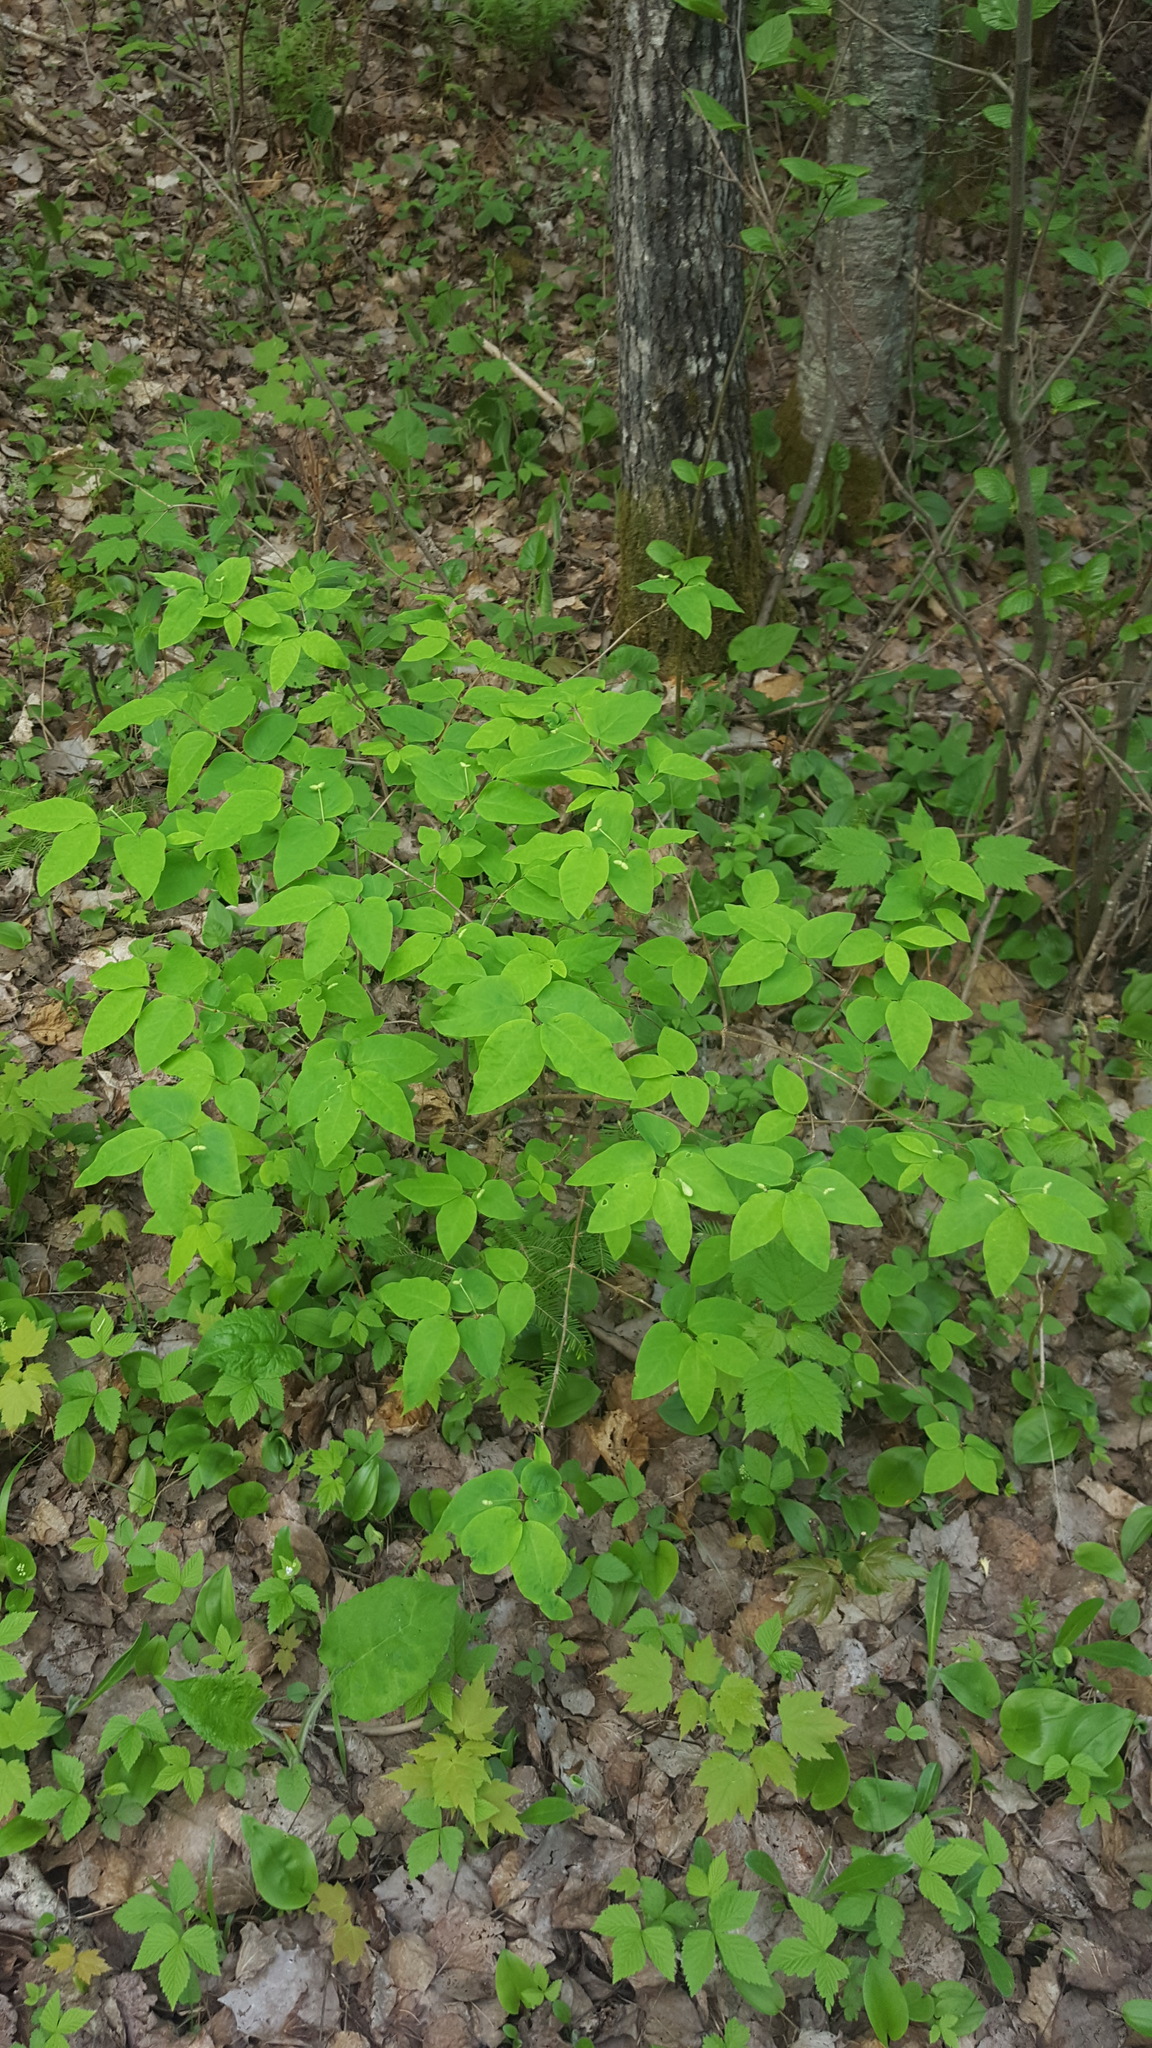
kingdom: Plantae
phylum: Tracheophyta
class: Magnoliopsida
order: Dipsacales
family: Caprifoliaceae
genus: Lonicera
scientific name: Lonicera canadensis
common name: American fly-honeysuckle
